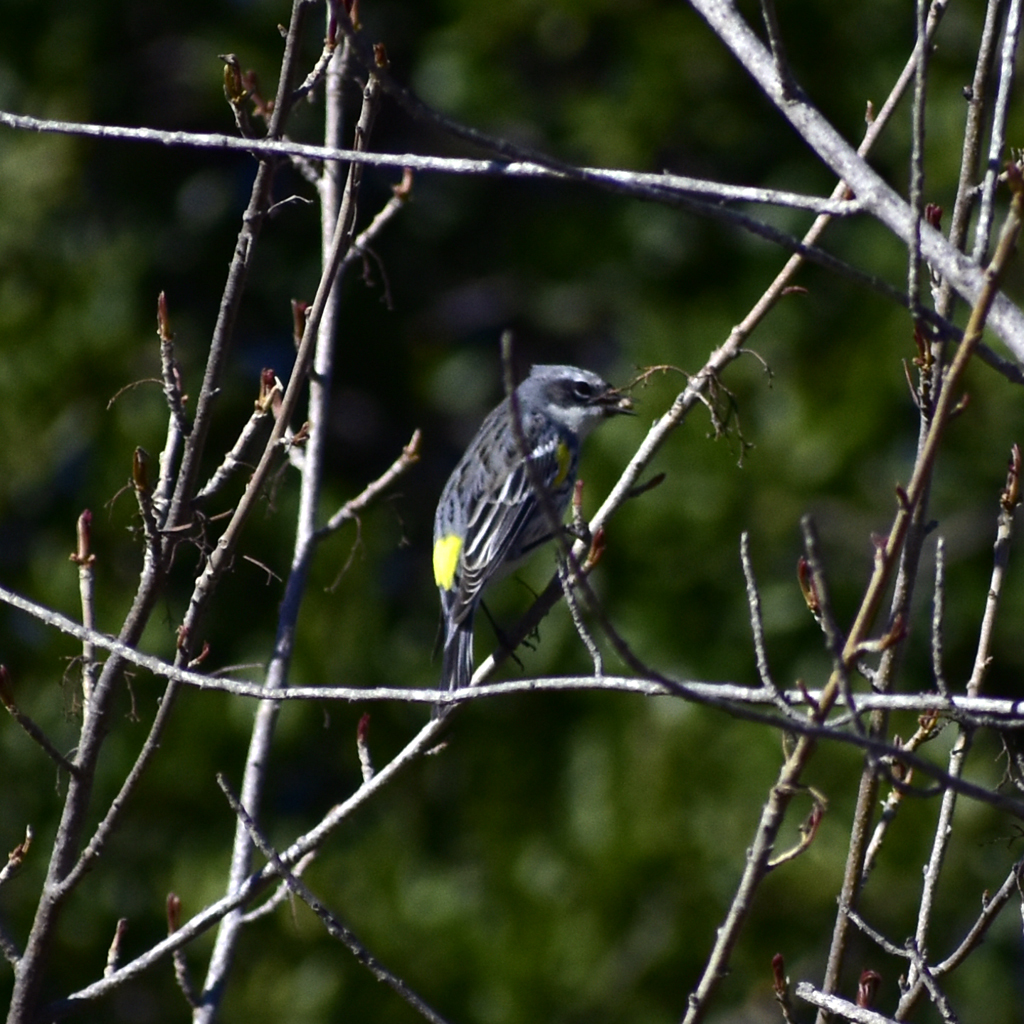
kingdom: Animalia
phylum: Chordata
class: Aves
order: Passeriformes
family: Parulidae
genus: Setophaga
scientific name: Setophaga coronata
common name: Myrtle warbler
